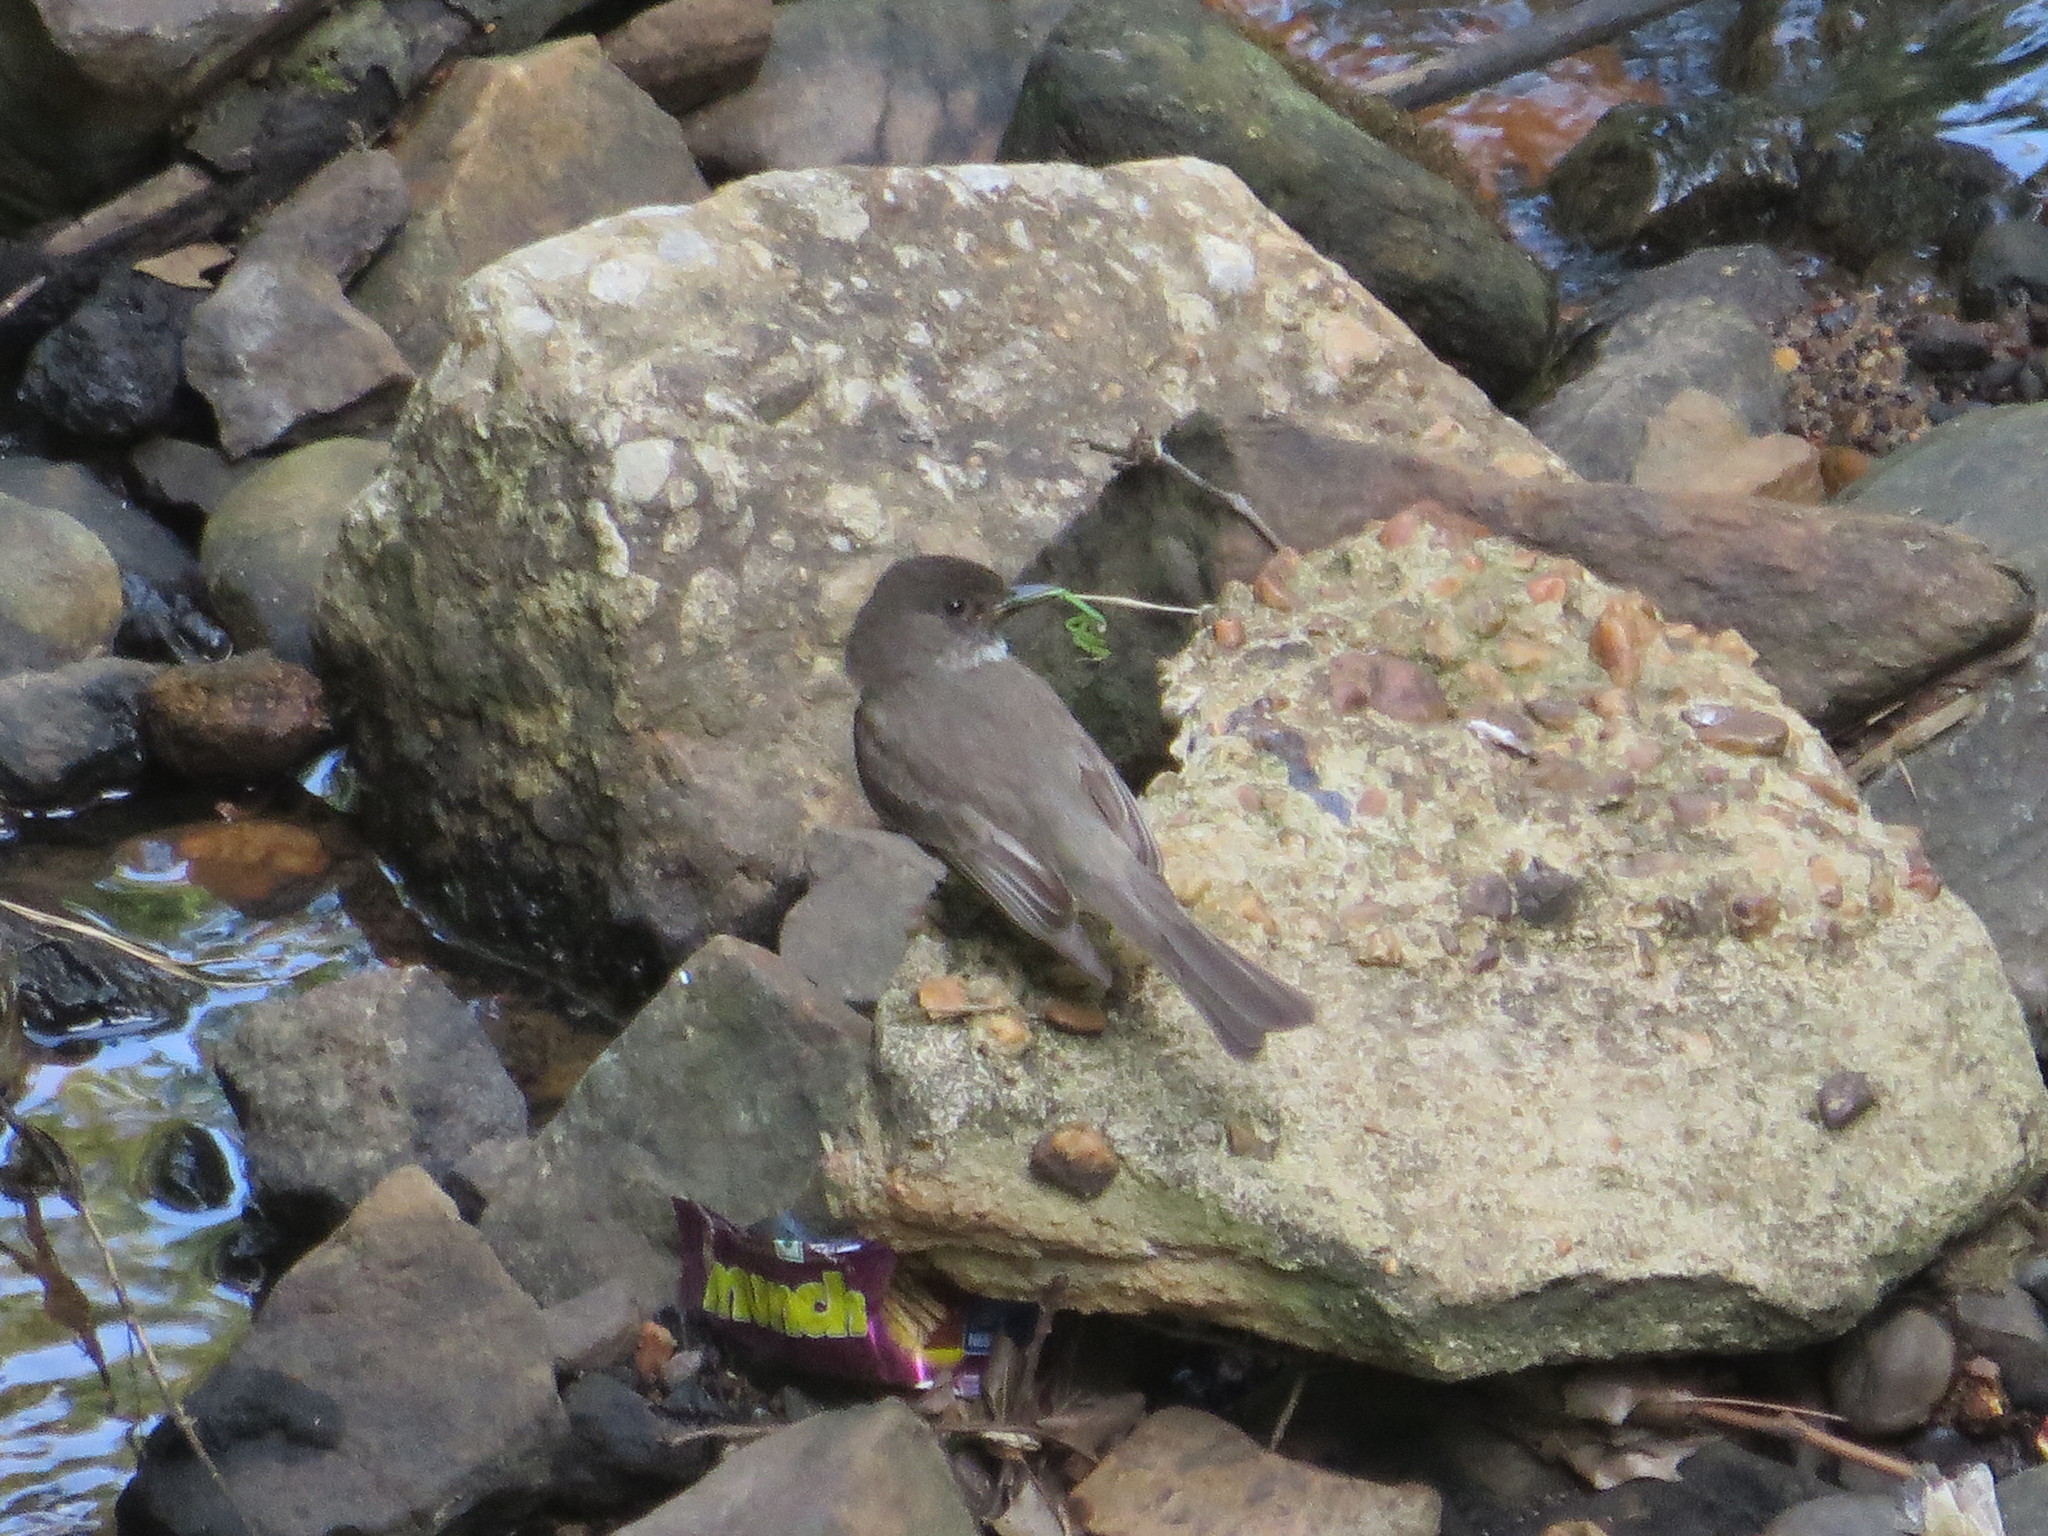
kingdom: Animalia
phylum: Chordata
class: Aves
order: Passeriformes
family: Tyrannidae
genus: Sayornis
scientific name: Sayornis phoebe
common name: Eastern phoebe
